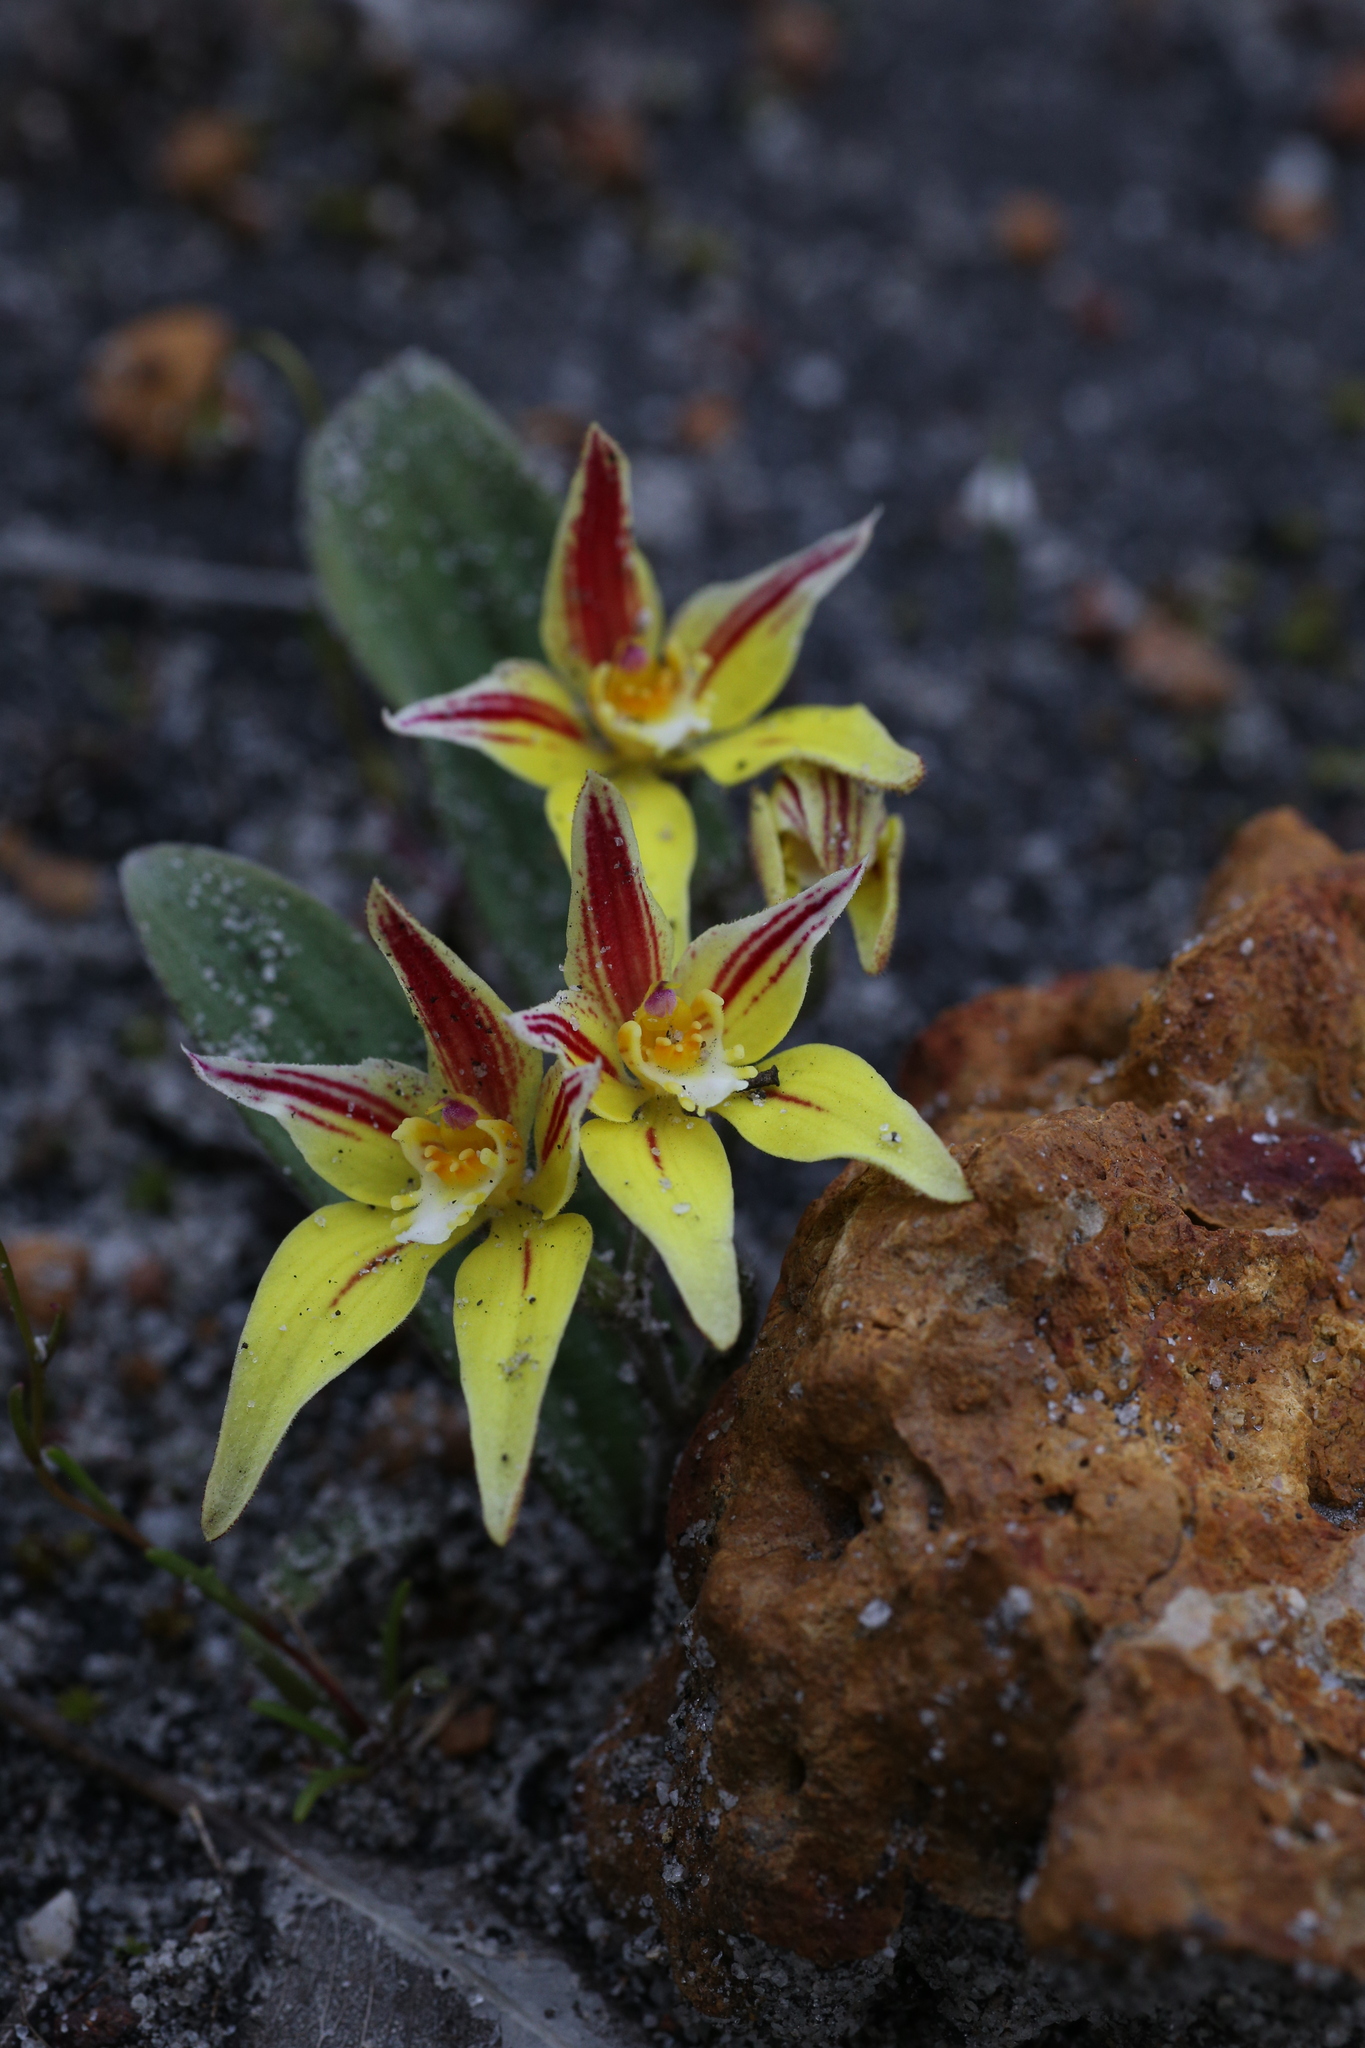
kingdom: Plantae
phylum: Tracheophyta
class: Liliopsida
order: Asparagales
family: Orchidaceae
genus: Caladenia
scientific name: Caladenia flava
